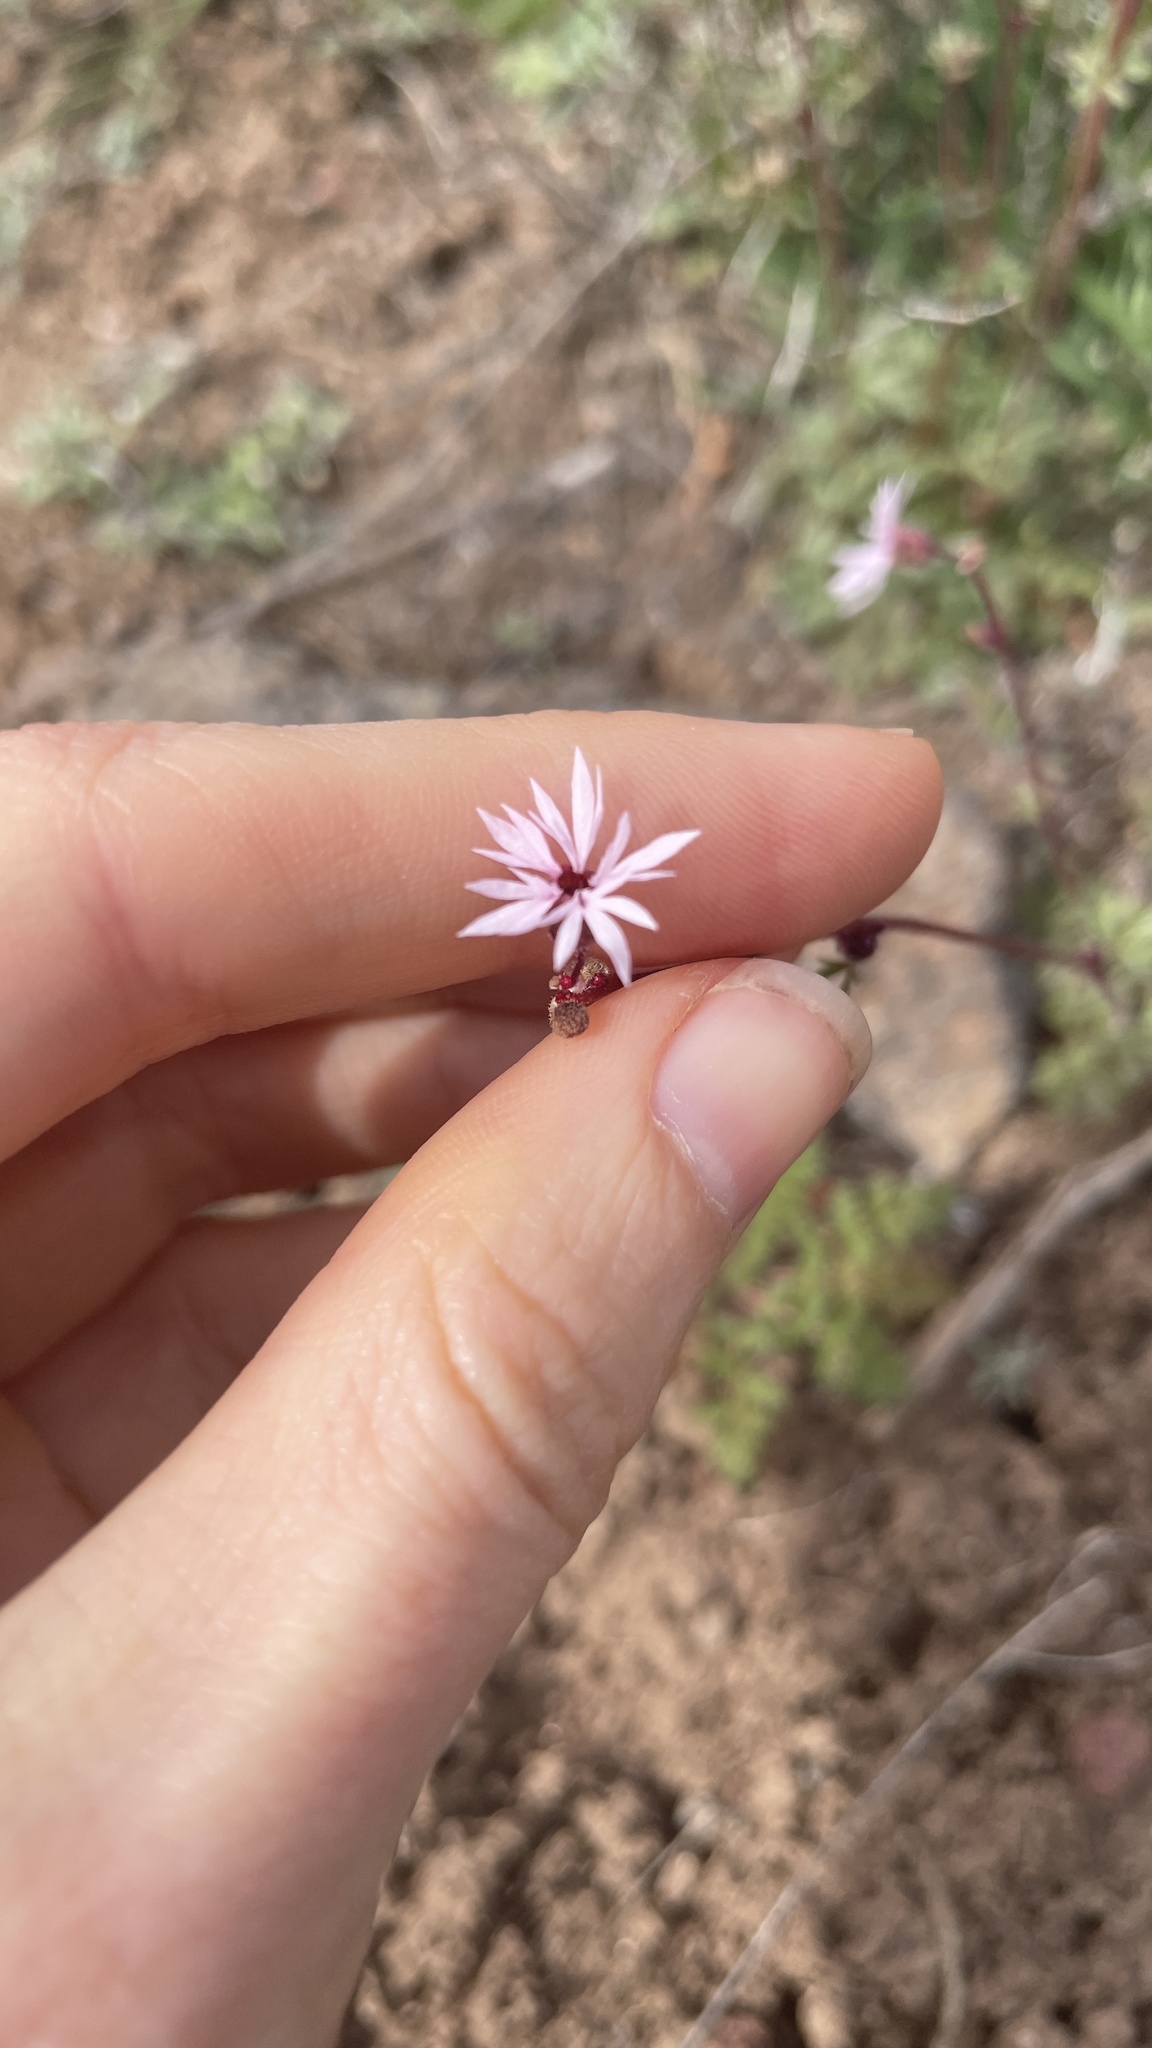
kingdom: Plantae
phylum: Tracheophyta
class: Magnoliopsida
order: Saxifragales
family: Saxifragaceae
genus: Lithophragma
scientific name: Lithophragma glabrum
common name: Bulbous prairie-star
